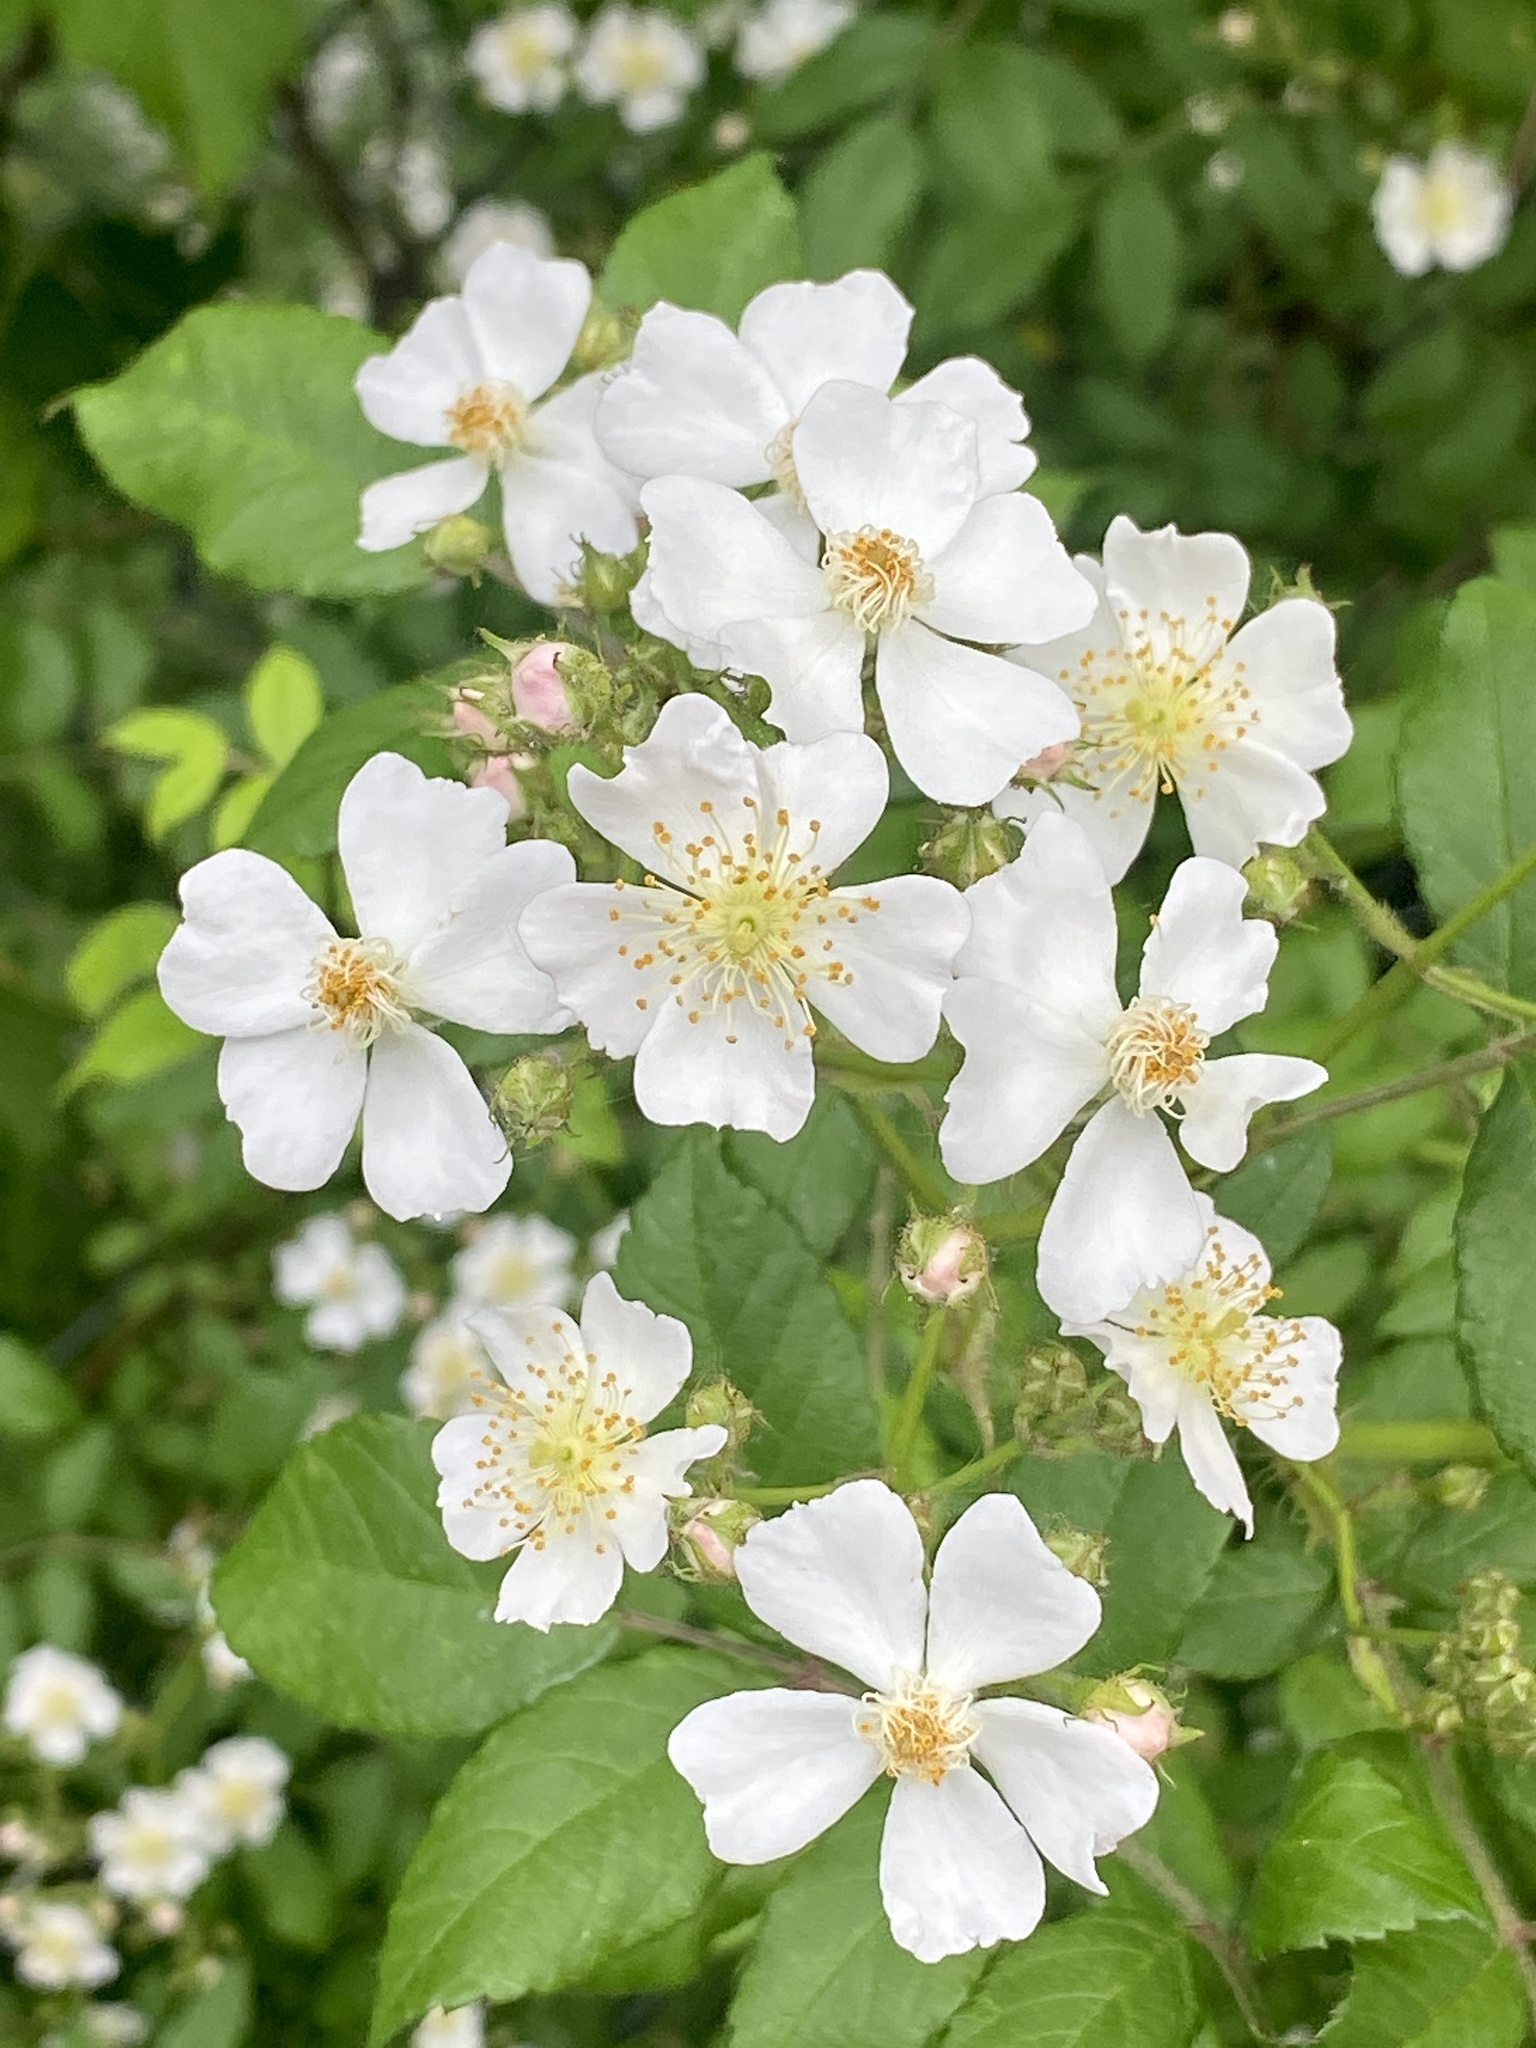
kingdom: Plantae
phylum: Tracheophyta
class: Magnoliopsida
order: Rosales
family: Rosaceae
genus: Rosa
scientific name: Rosa multiflora
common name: Multiflora rose
